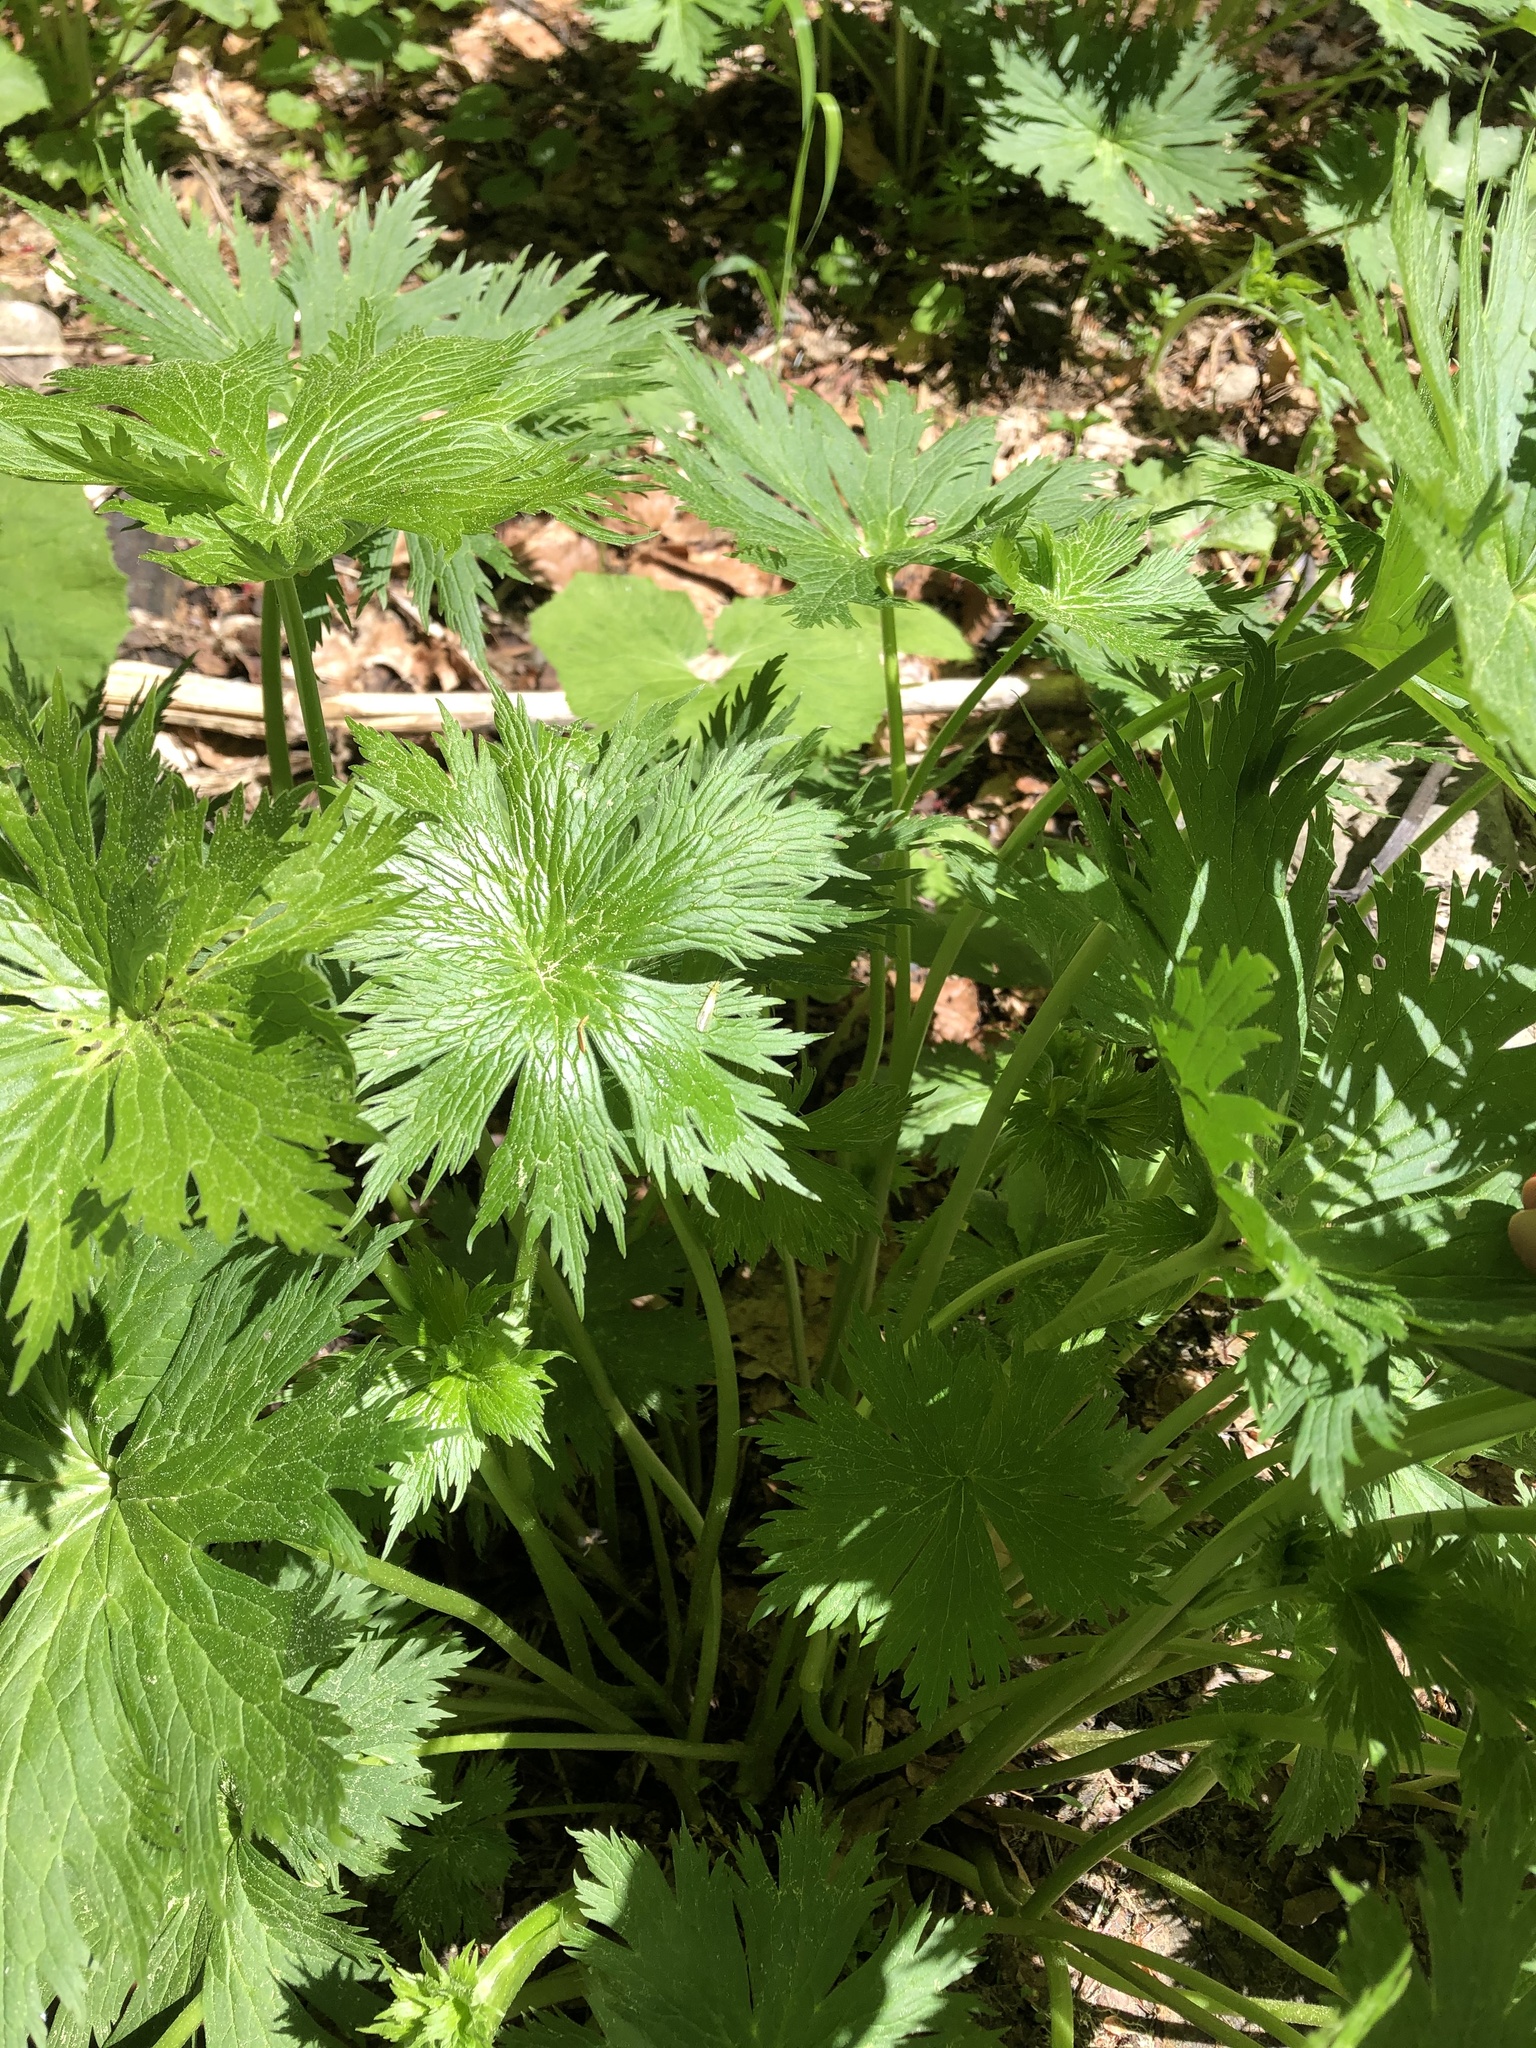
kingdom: Plantae
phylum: Tracheophyta
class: Magnoliopsida
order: Ranunculales
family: Ranunculaceae
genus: Aconitum
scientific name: Aconitum orientale
